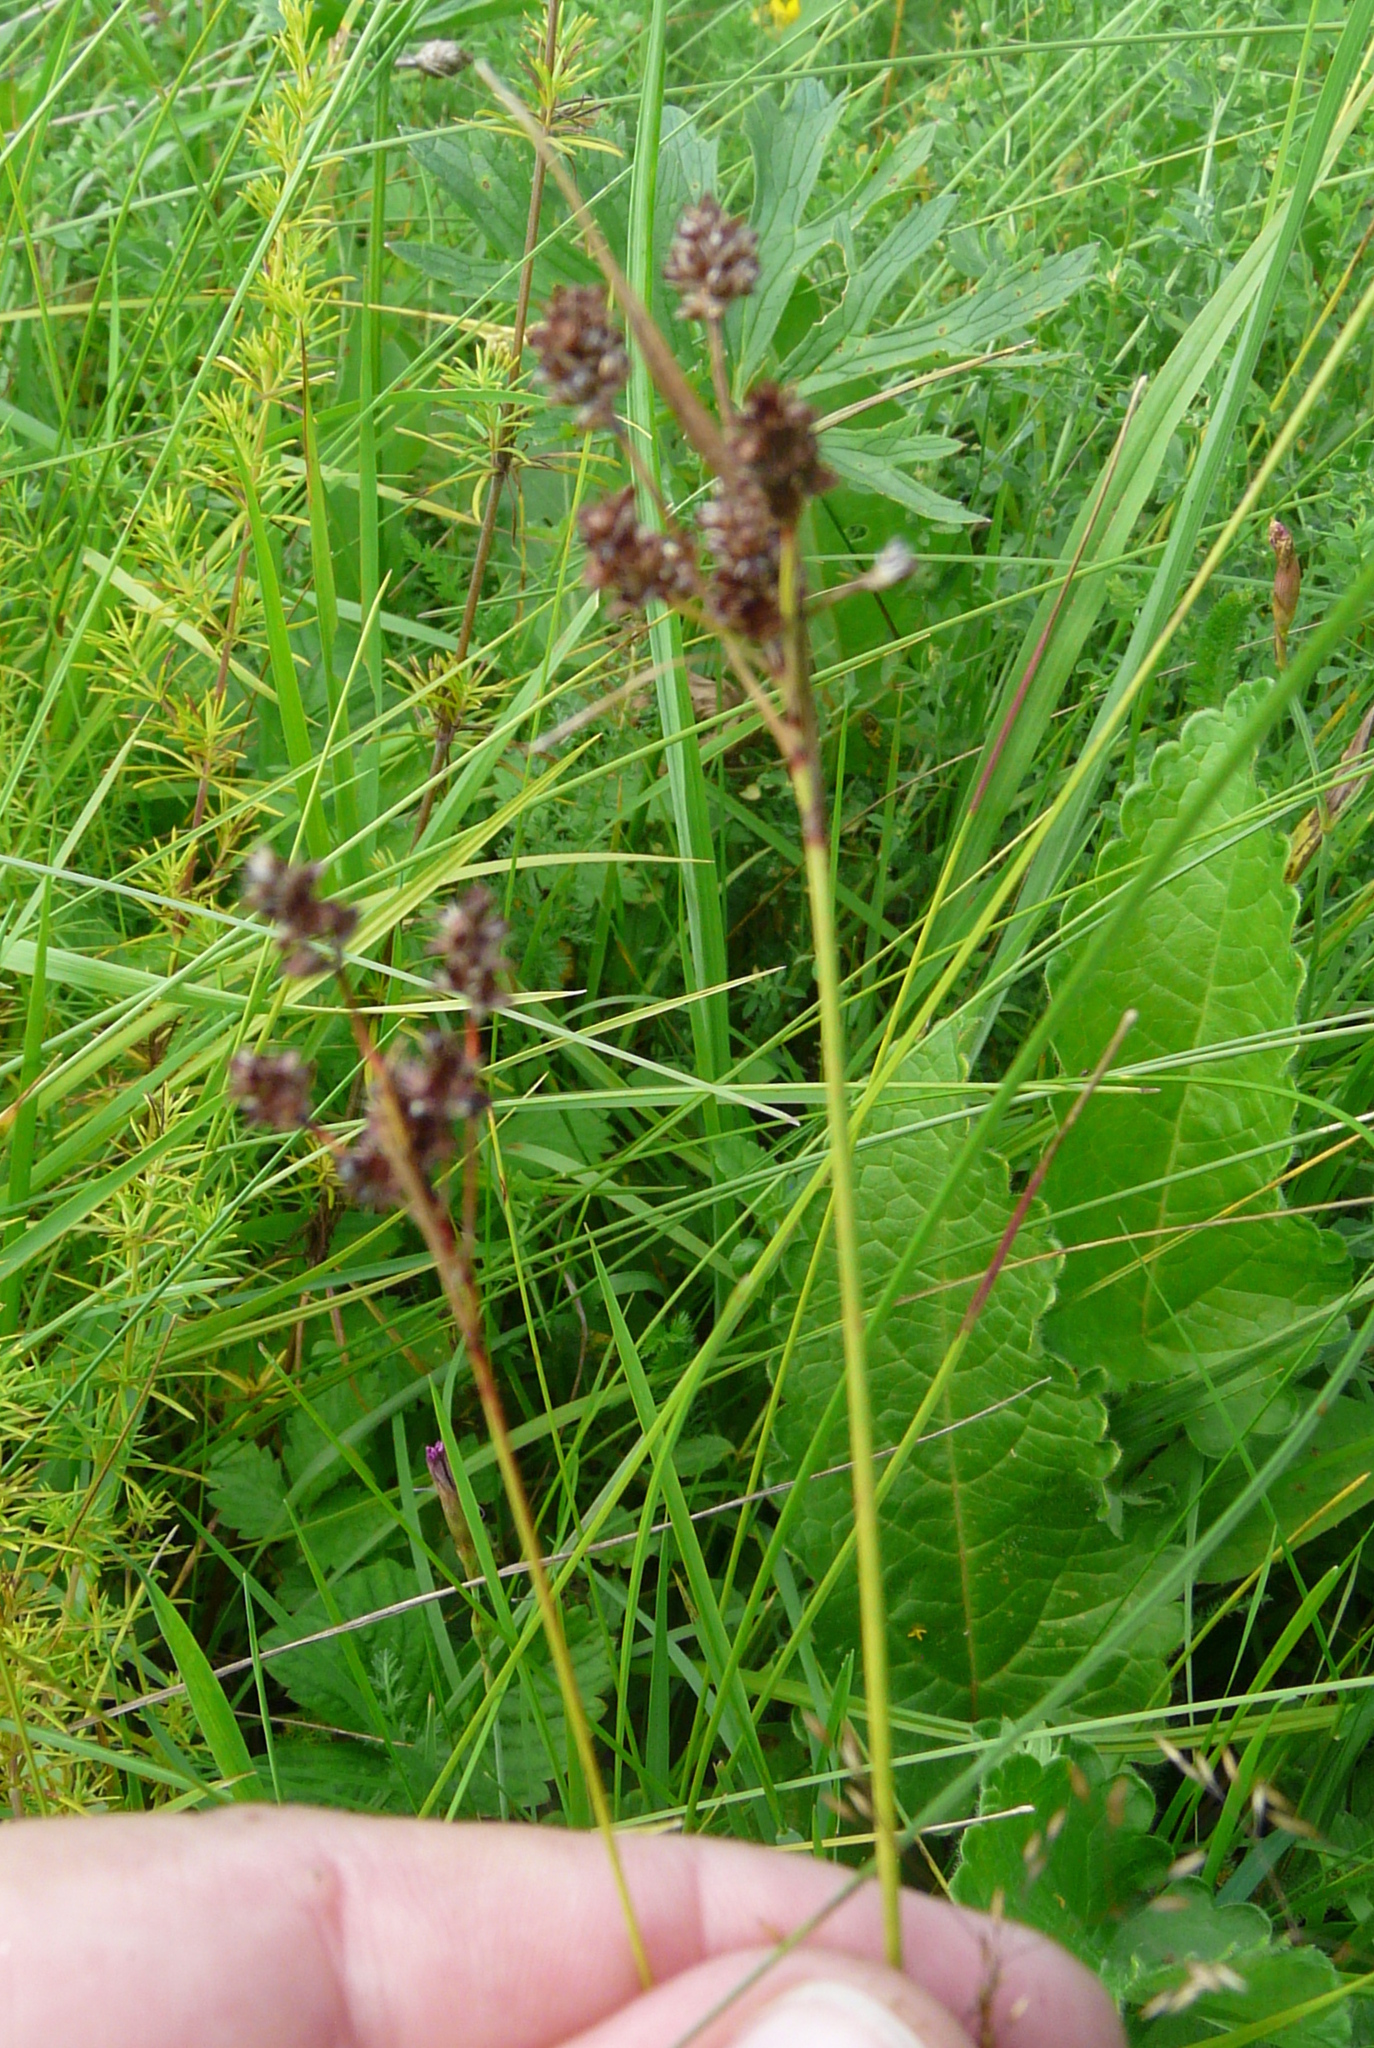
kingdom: Plantae
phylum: Tracheophyta
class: Liliopsida
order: Poales
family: Juncaceae
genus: Luzula
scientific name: Luzula multiflora
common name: Heath wood-rush
